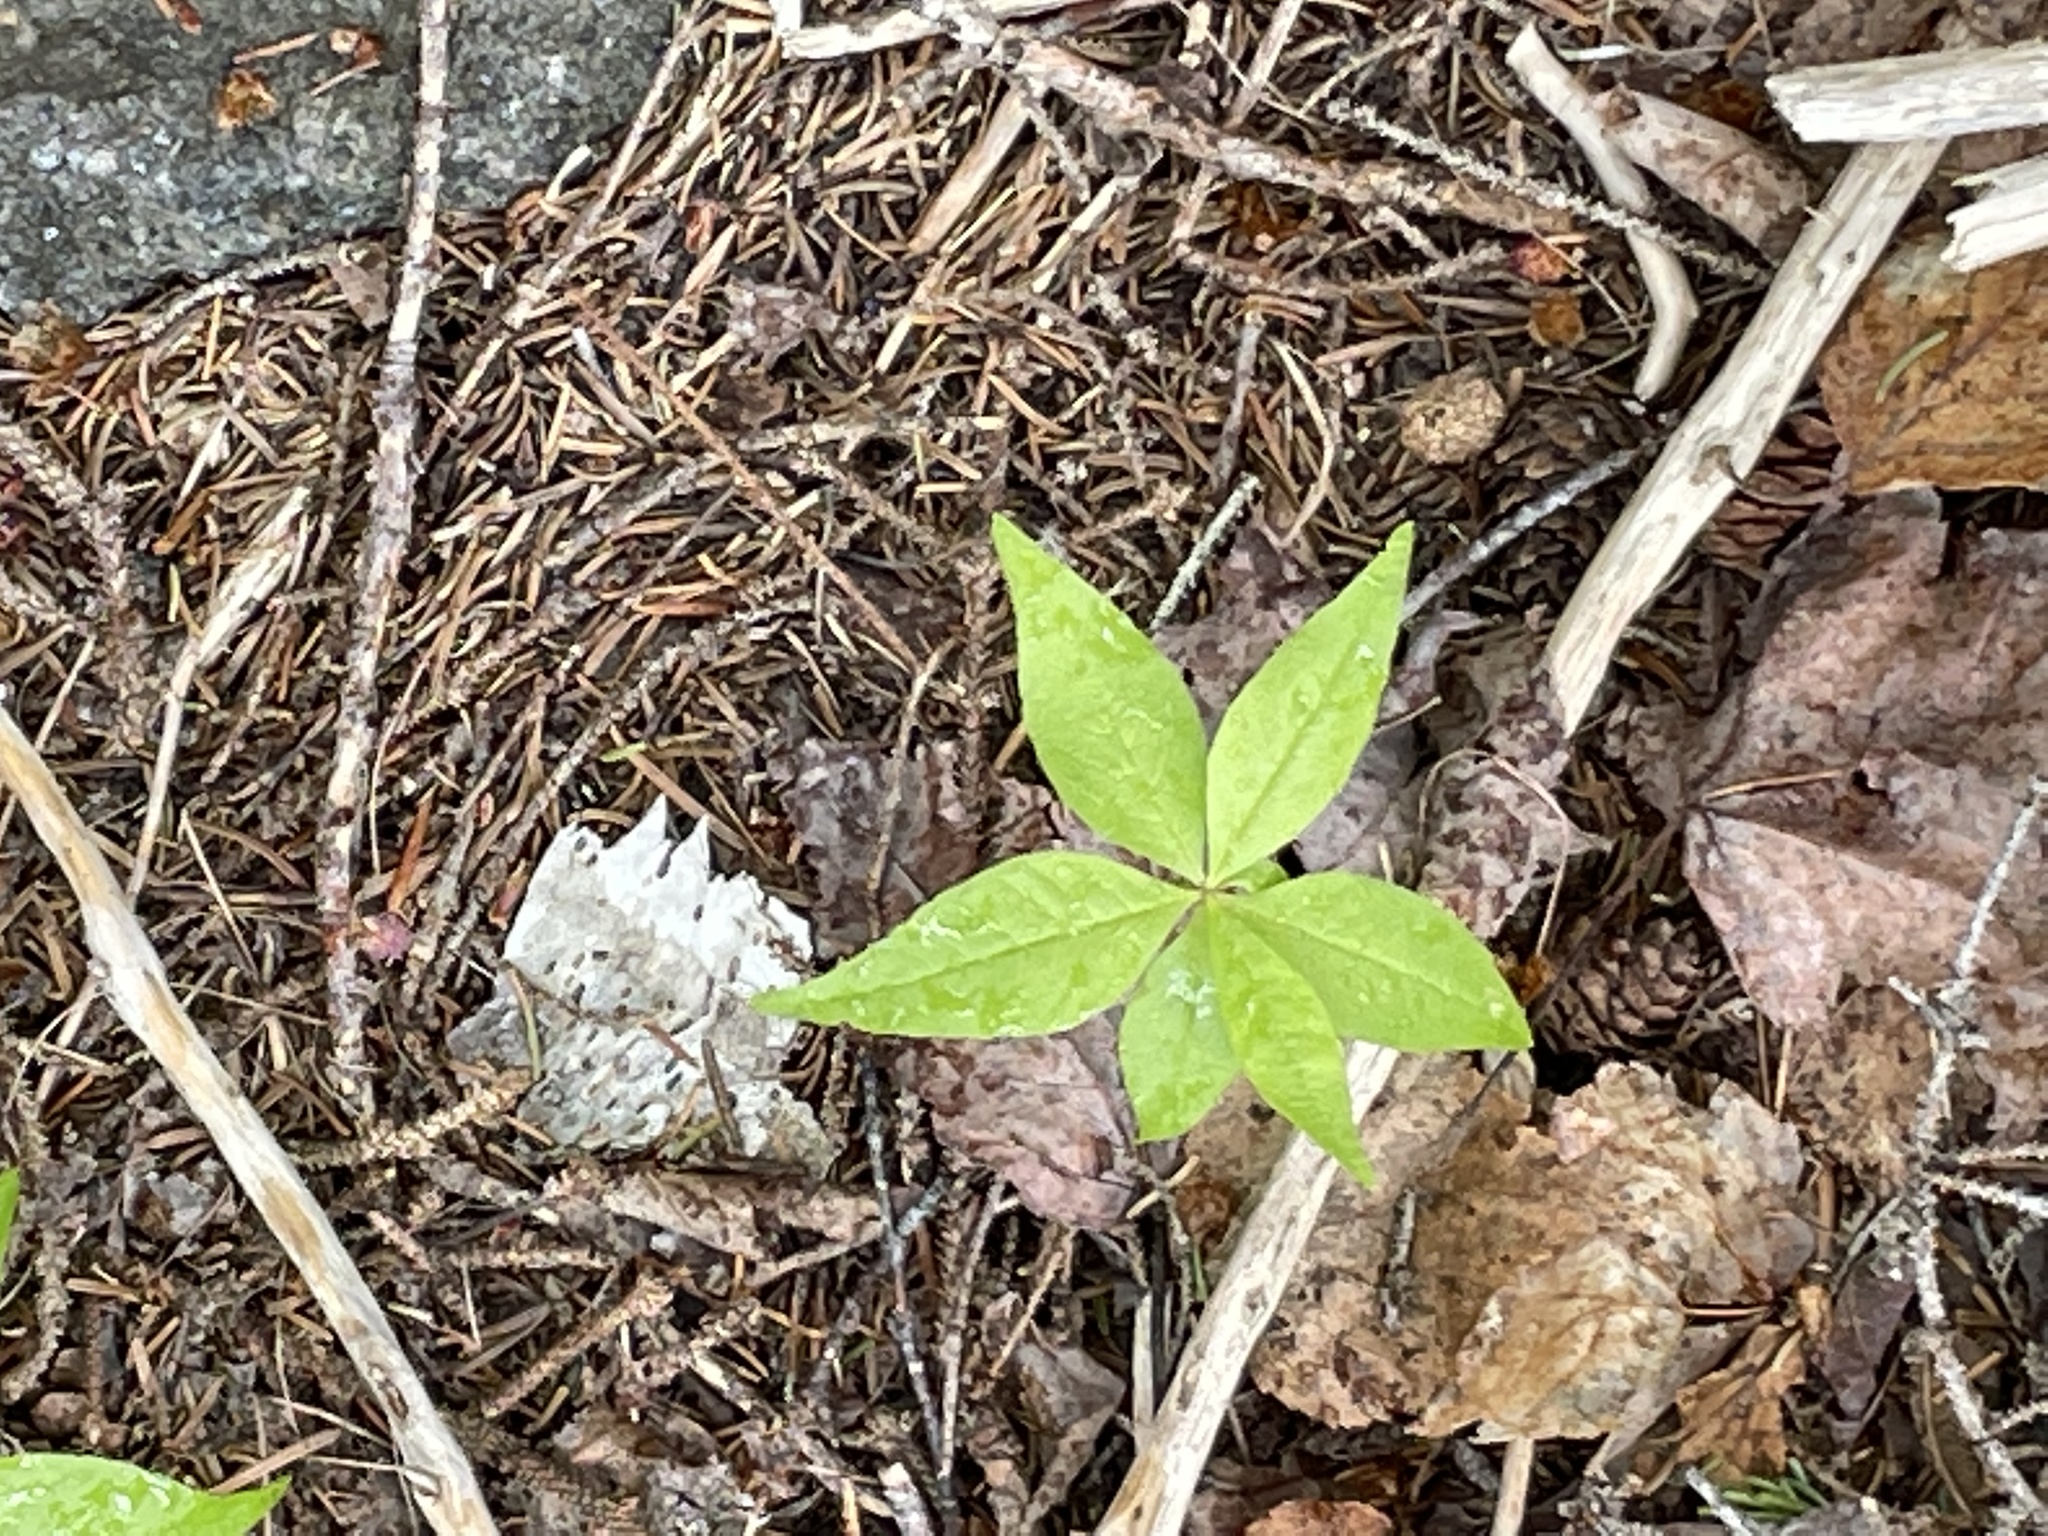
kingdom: Plantae
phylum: Tracheophyta
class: Magnoliopsida
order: Ericales
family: Primulaceae
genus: Lysimachia
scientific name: Lysimachia borealis
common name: American starflower
